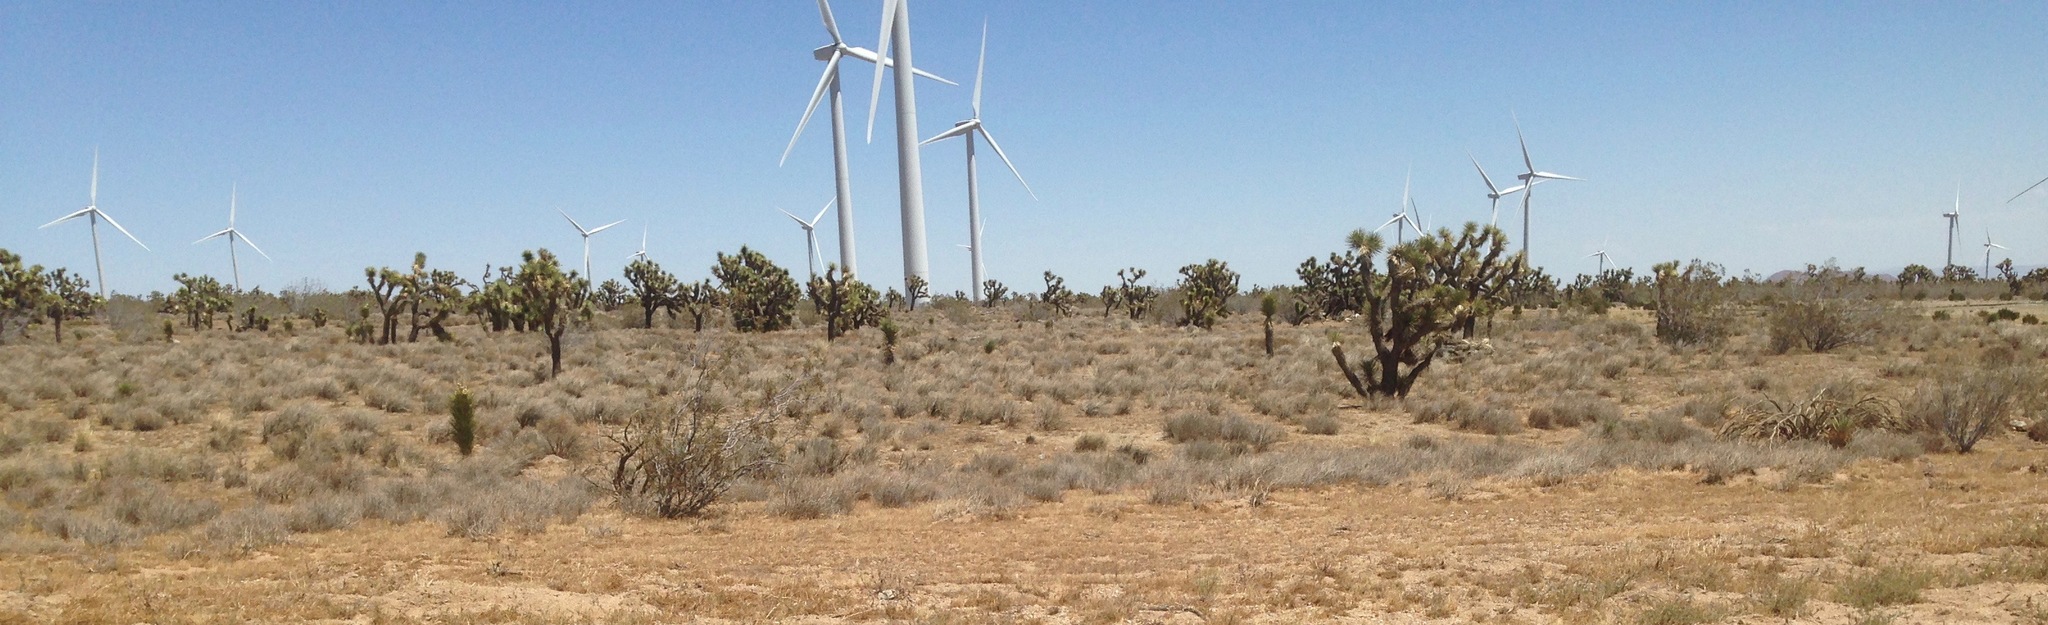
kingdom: Plantae
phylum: Tracheophyta
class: Liliopsida
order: Asparagales
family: Asparagaceae
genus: Yucca
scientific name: Yucca brevifolia
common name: Joshua tree
